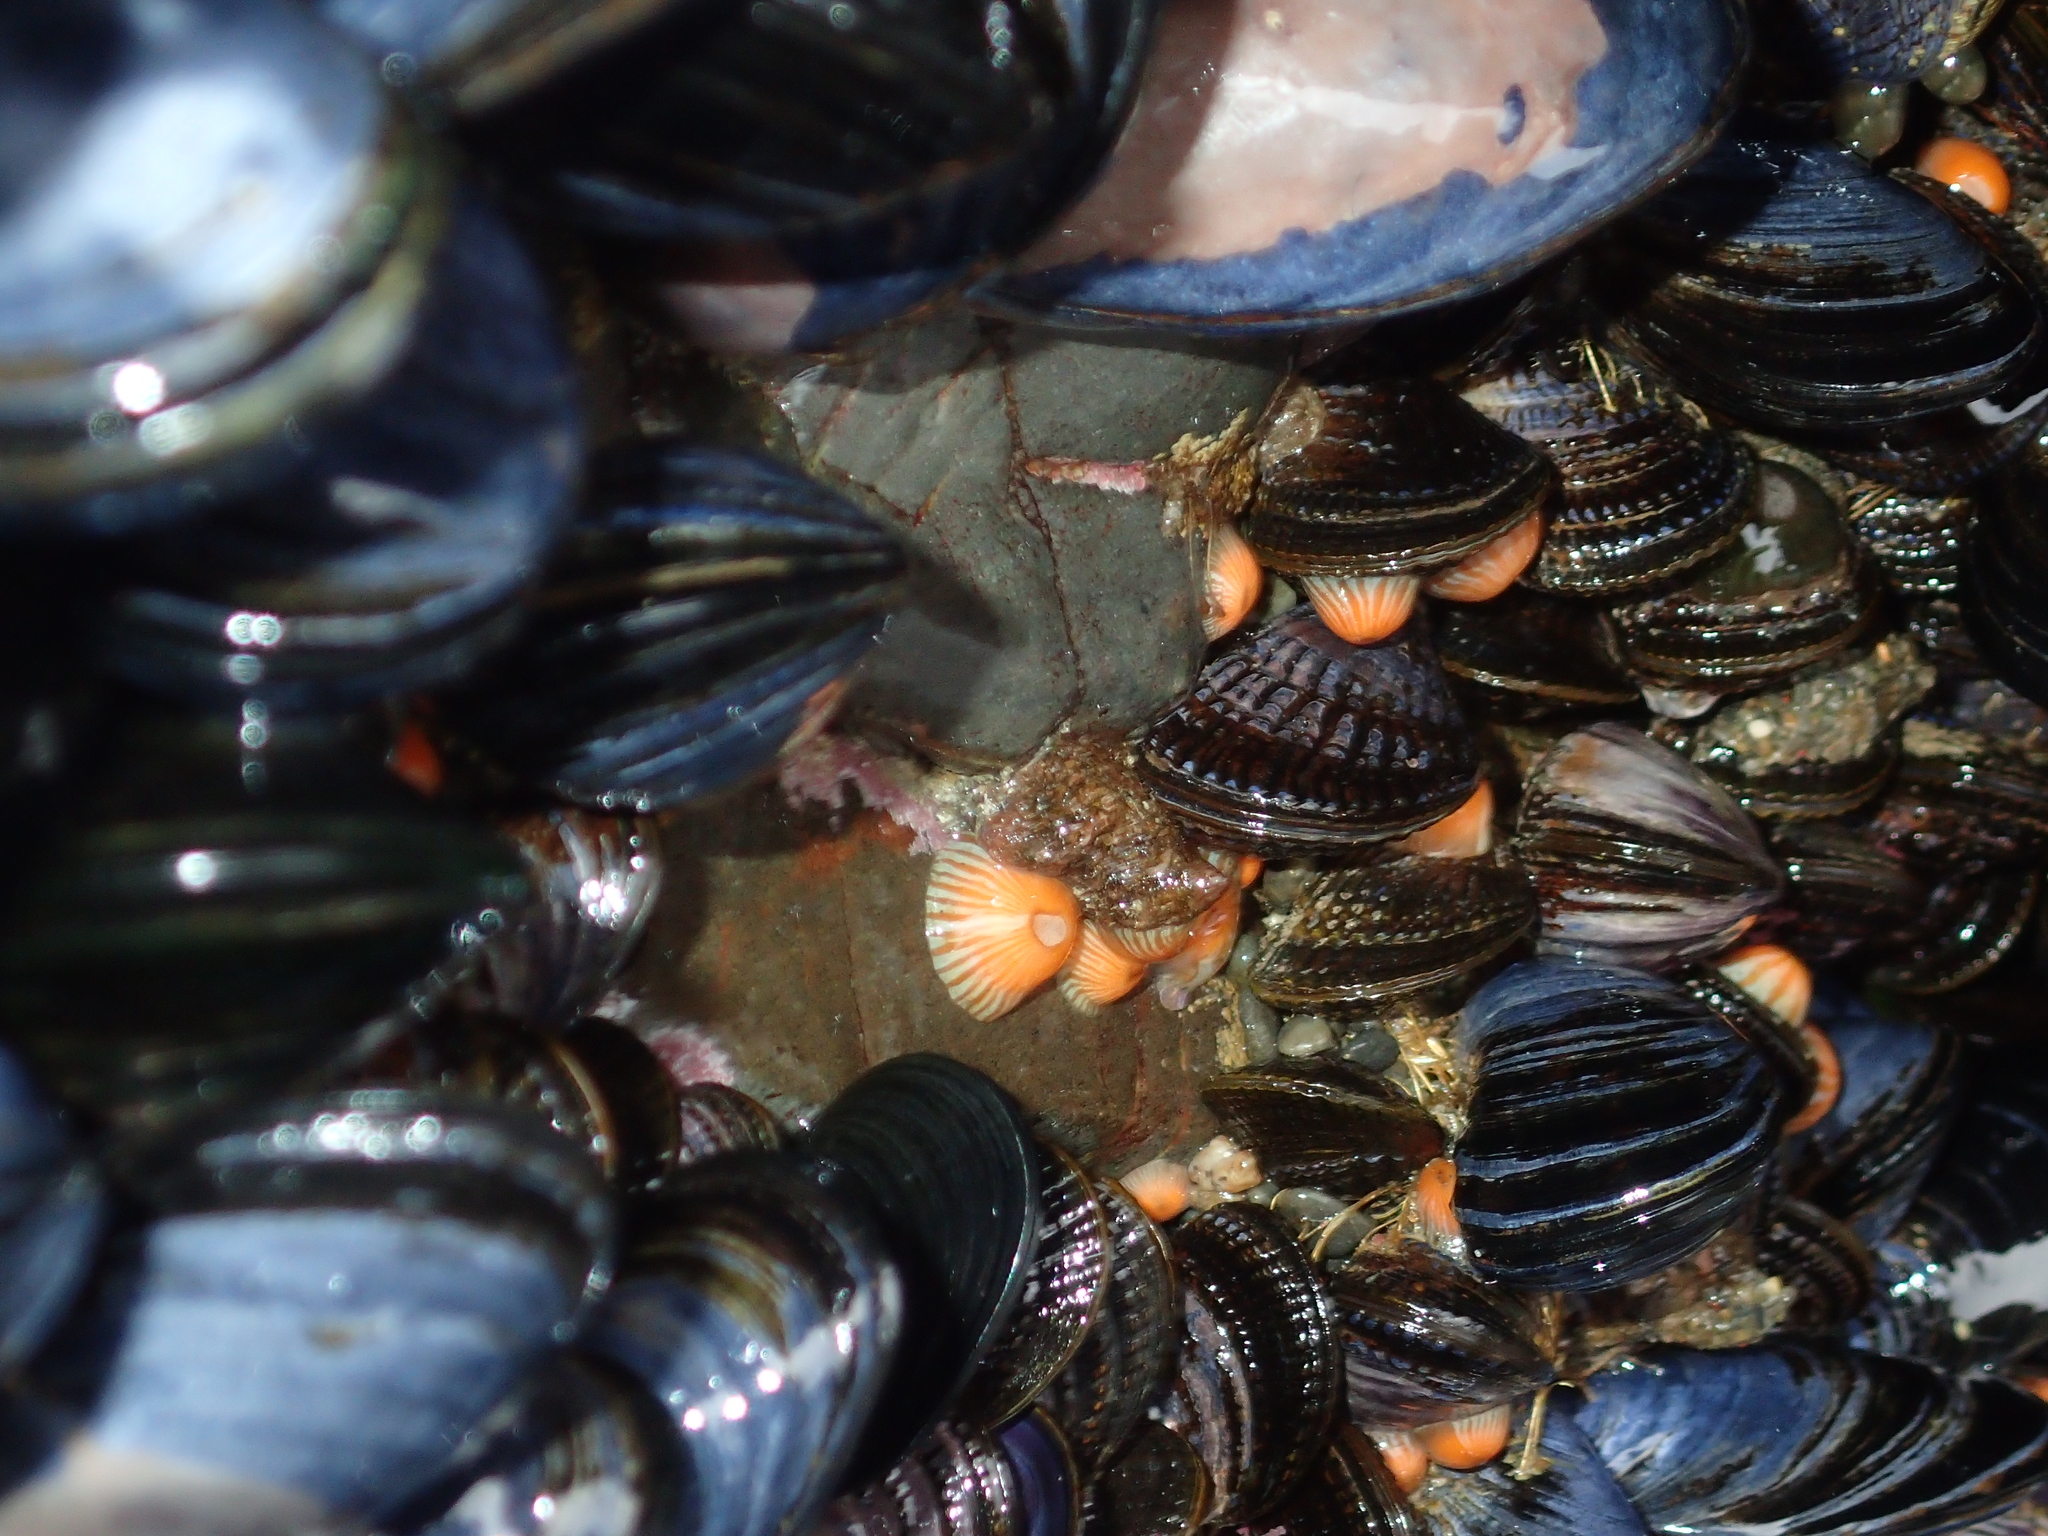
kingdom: Animalia
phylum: Mollusca
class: Bivalvia
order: Mytilida
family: Mytilidae
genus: Aulacomya
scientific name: Aulacomya maoriana
